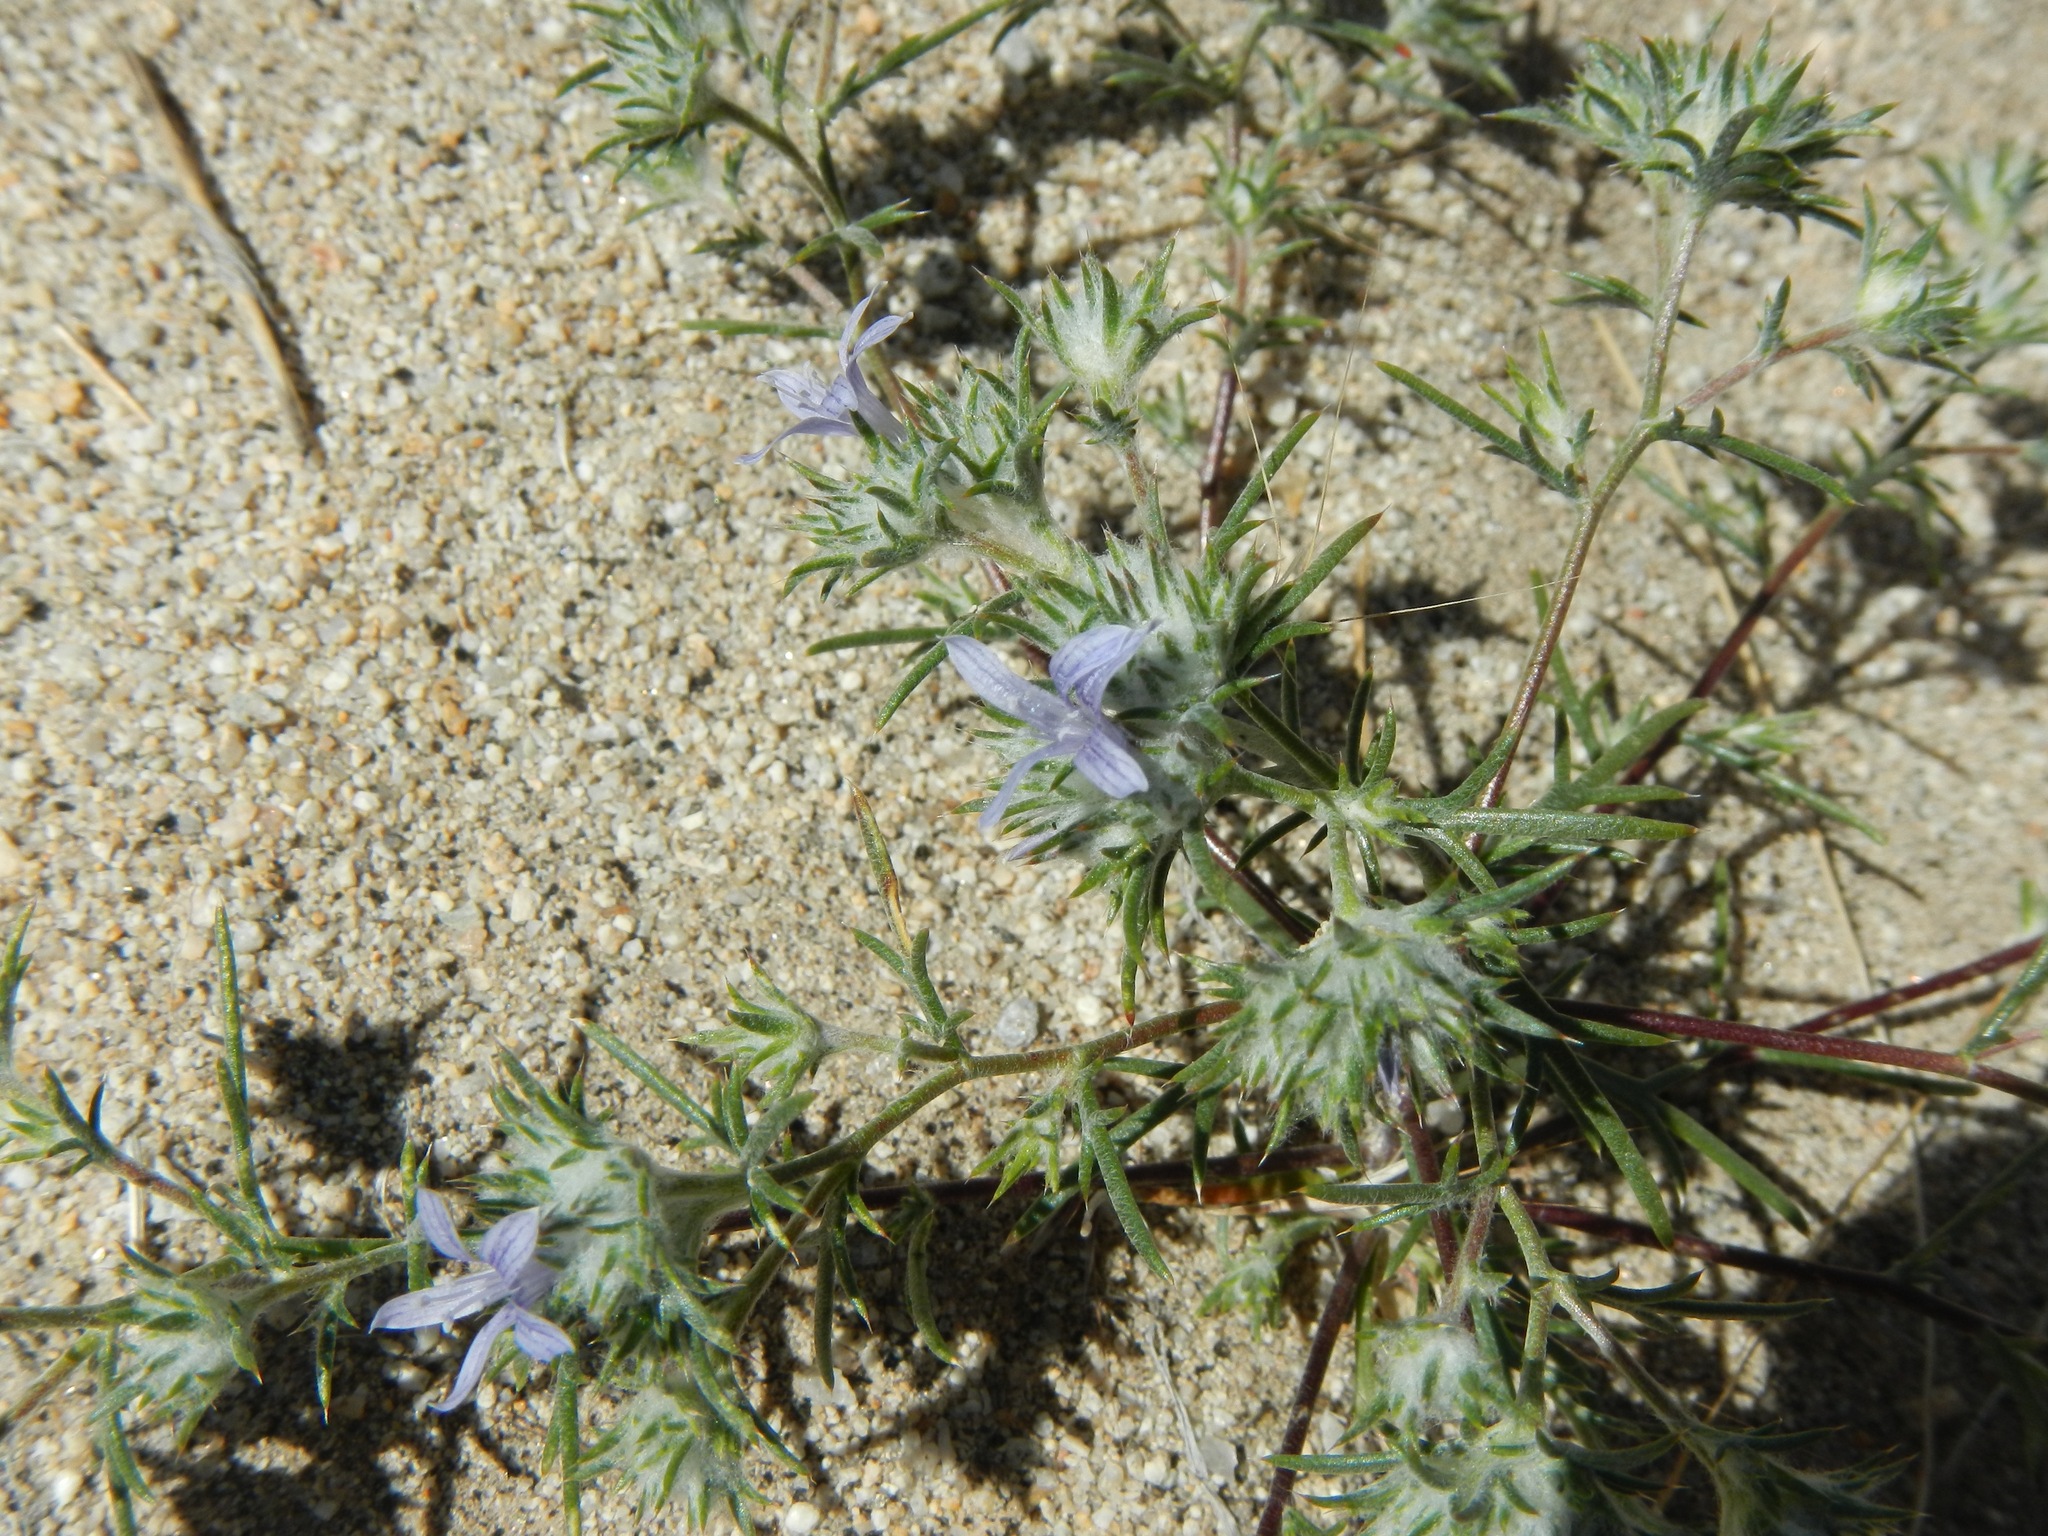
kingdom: Plantae
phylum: Tracheophyta
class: Magnoliopsida
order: Ericales
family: Polemoniaceae
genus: Eriastrum
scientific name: Eriastrum eremicum
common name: Desert eriastrum
